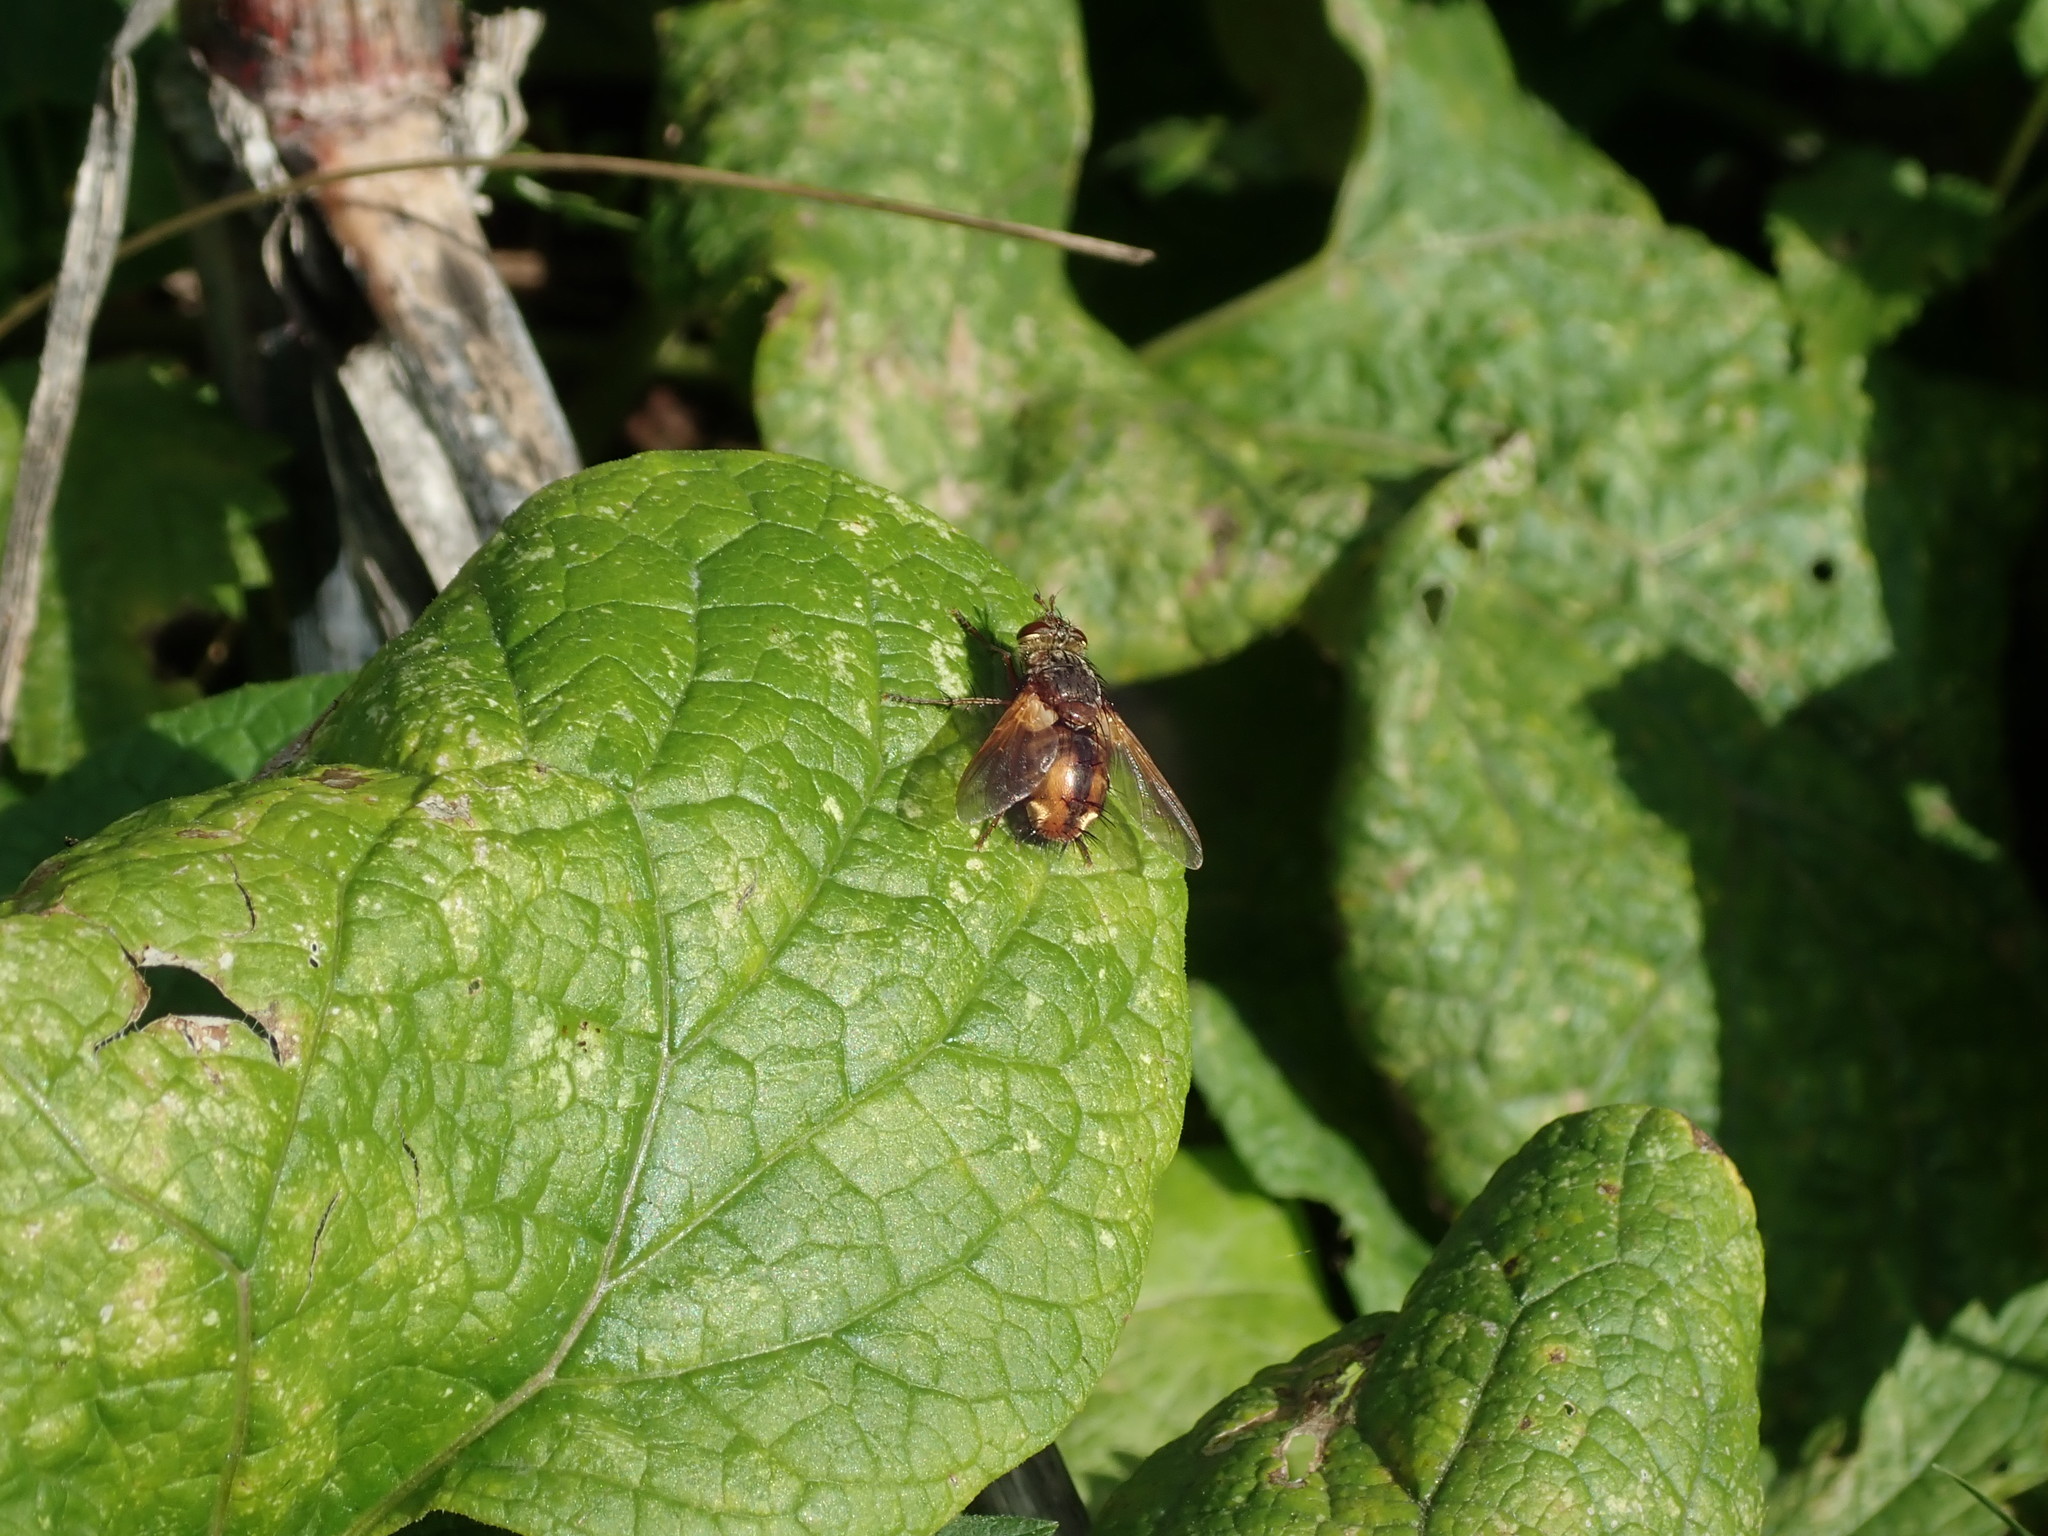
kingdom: Animalia
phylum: Arthropoda
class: Insecta
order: Diptera
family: Tachinidae
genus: Tachina
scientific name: Tachina fera
